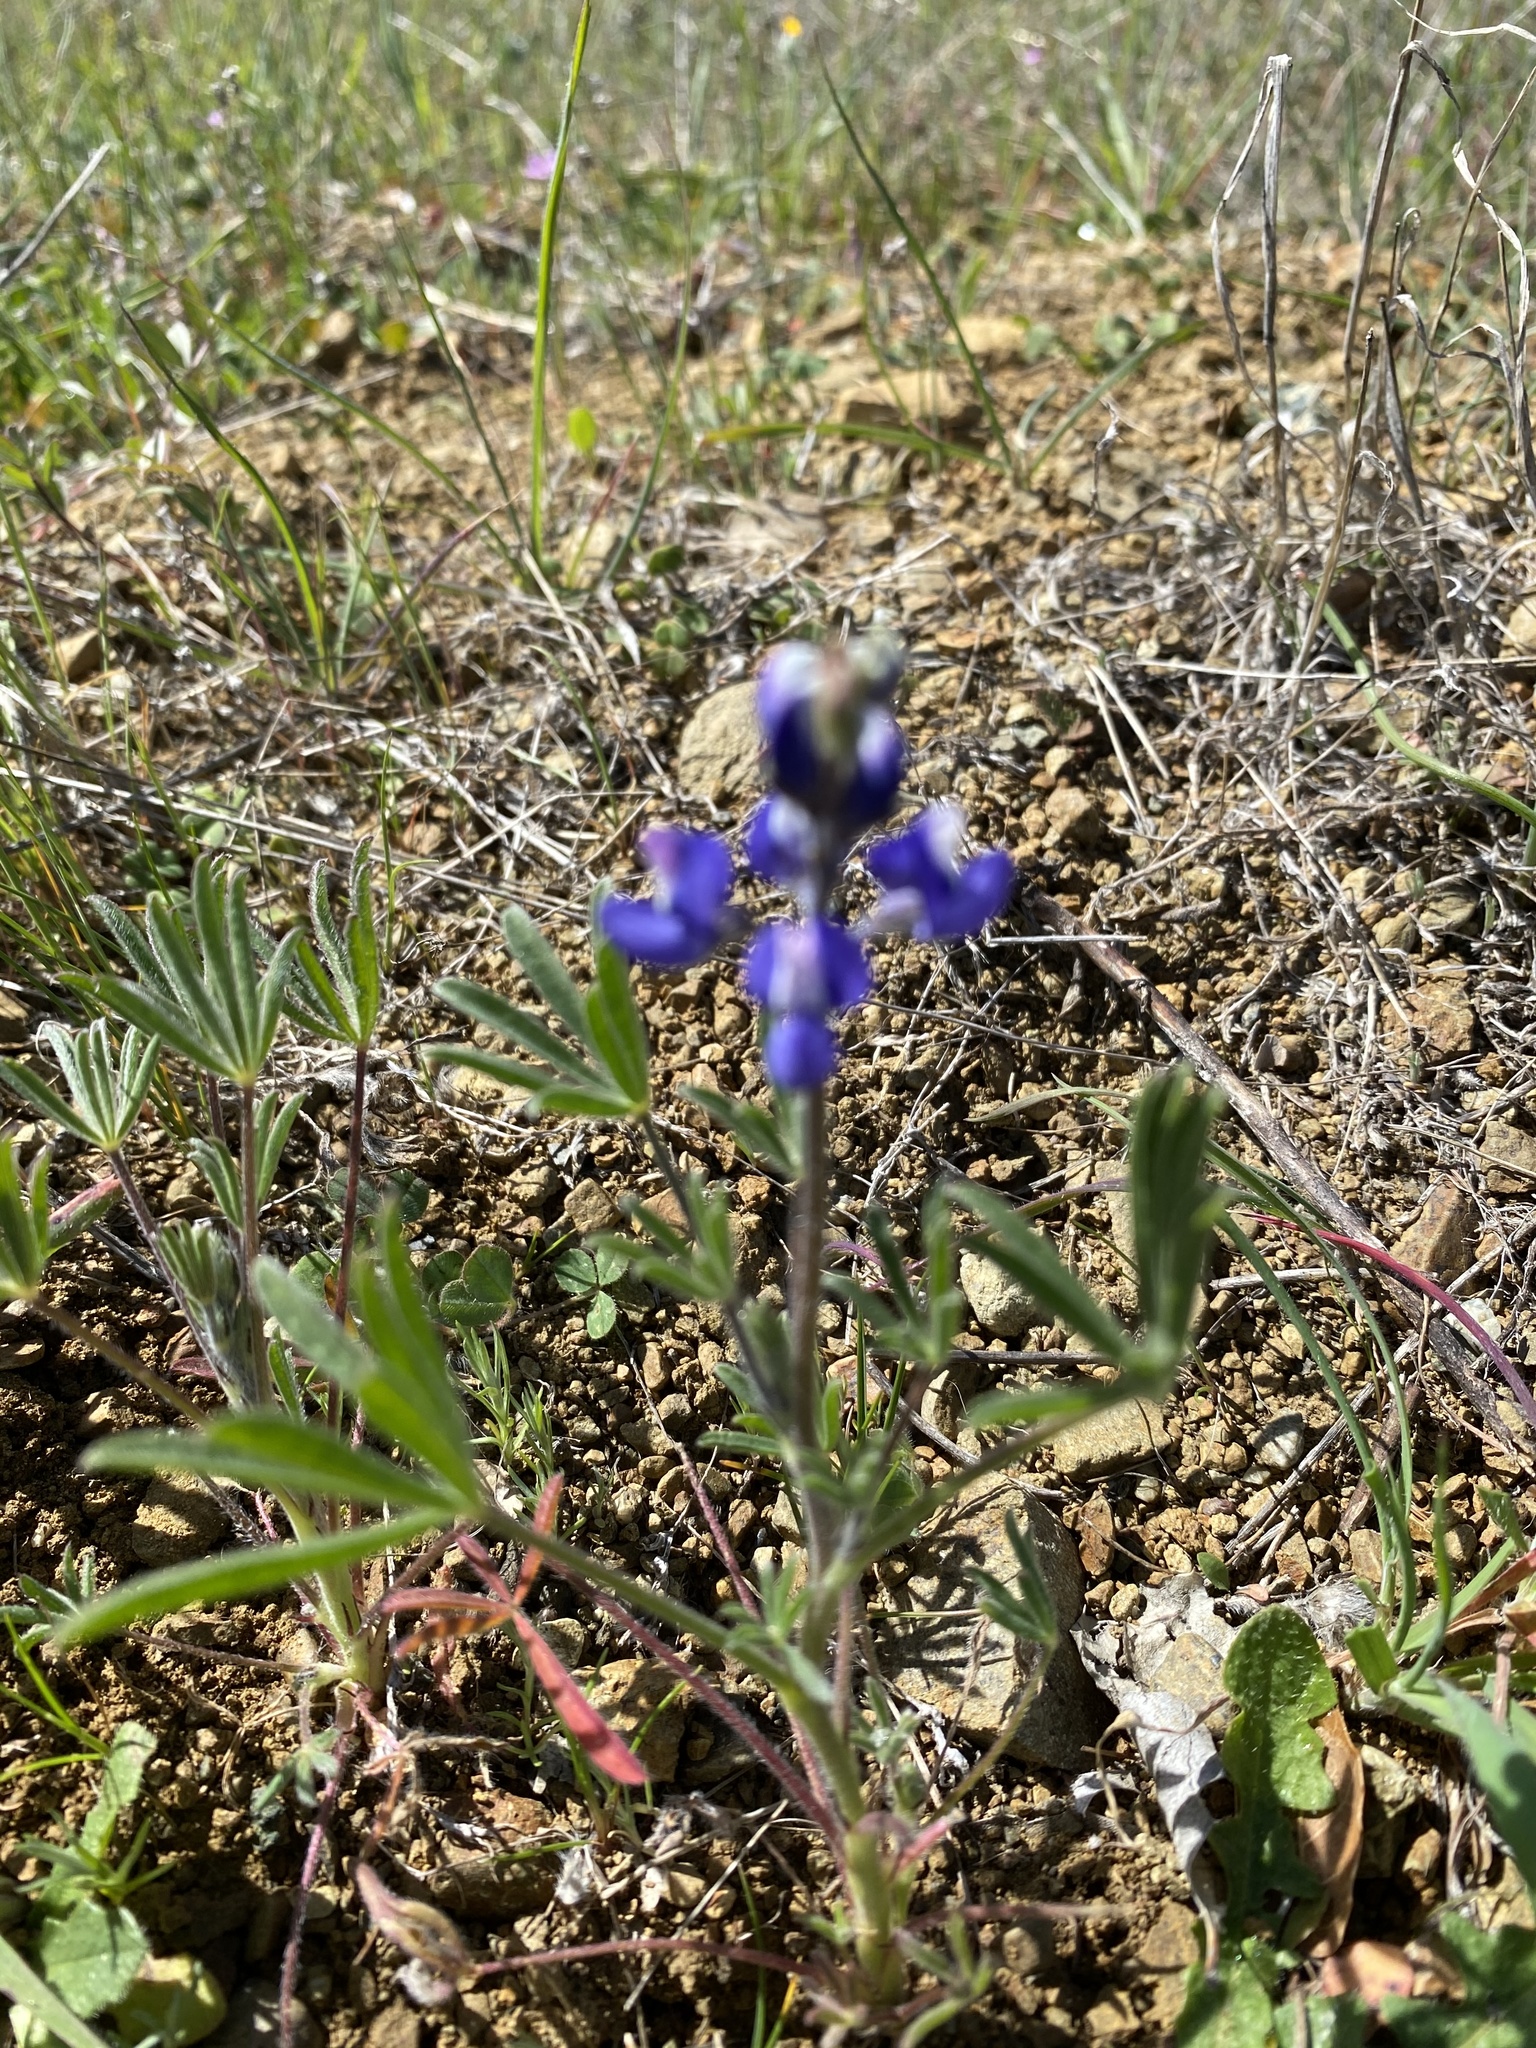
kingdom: Plantae
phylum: Tracheophyta
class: Magnoliopsida
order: Fabales
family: Fabaceae
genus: Lupinus
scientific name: Lupinus bicolor
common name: Miniature lupine
